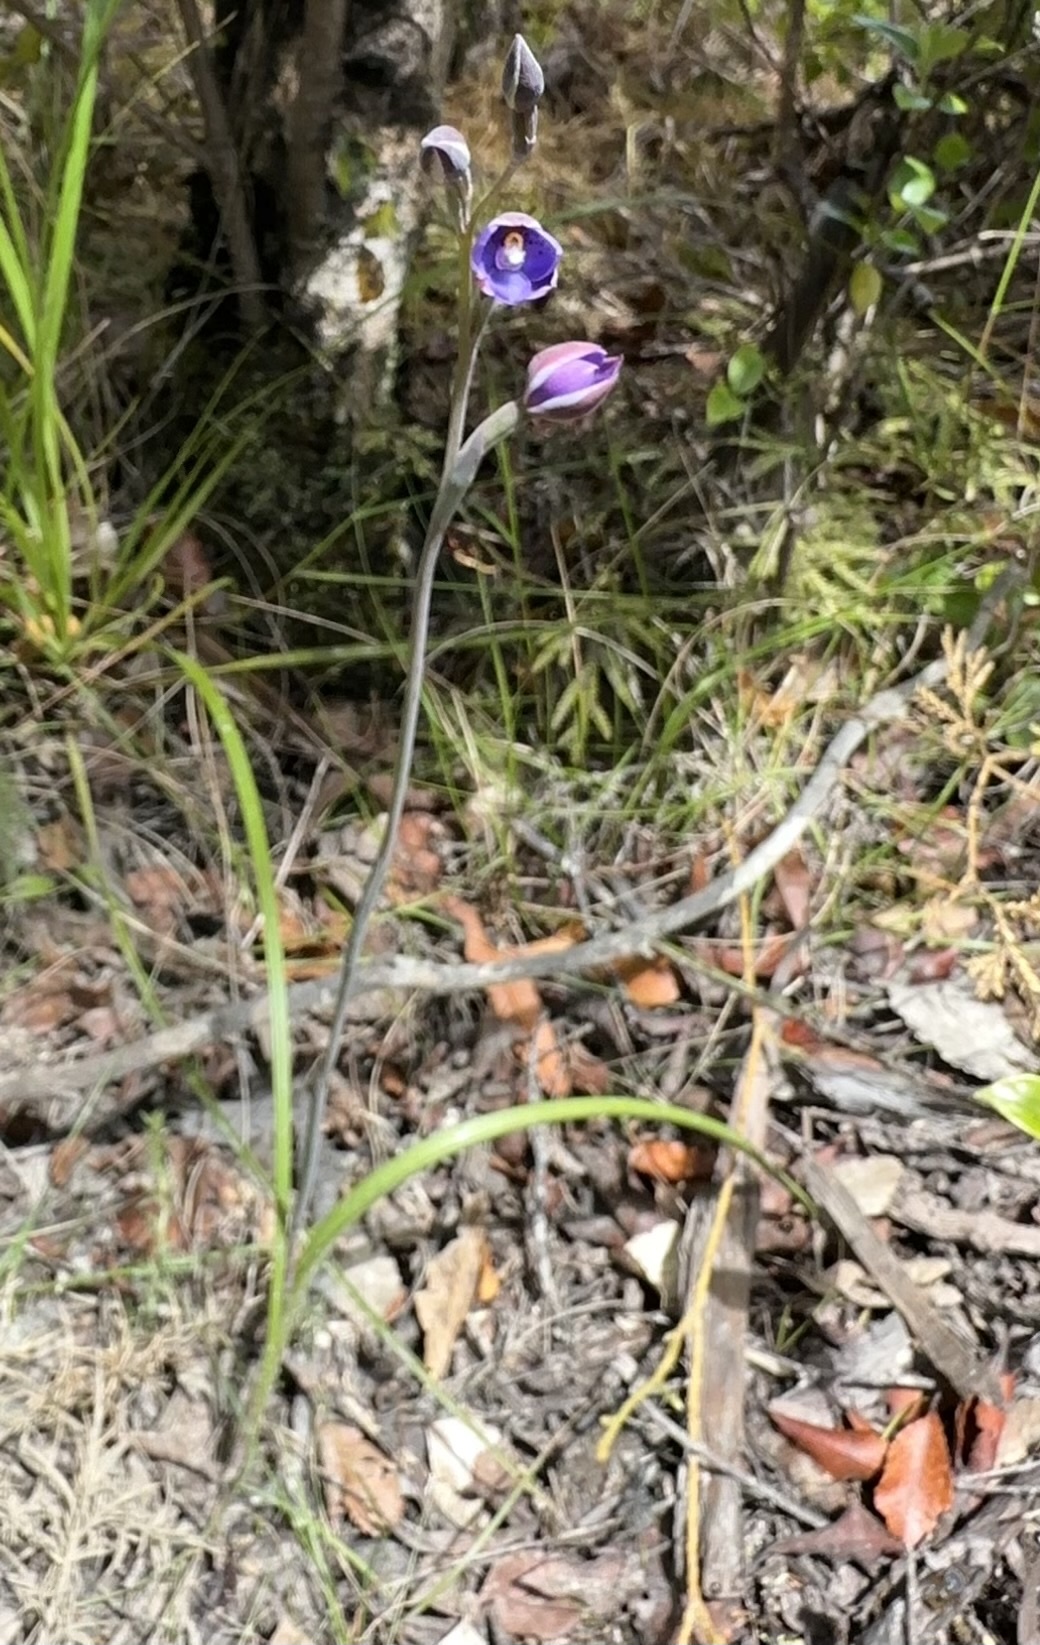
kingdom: Plantae
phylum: Tracheophyta
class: Liliopsida
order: Asparagales
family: Orchidaceae
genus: Thelymitra
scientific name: Thelymitra nervosa
